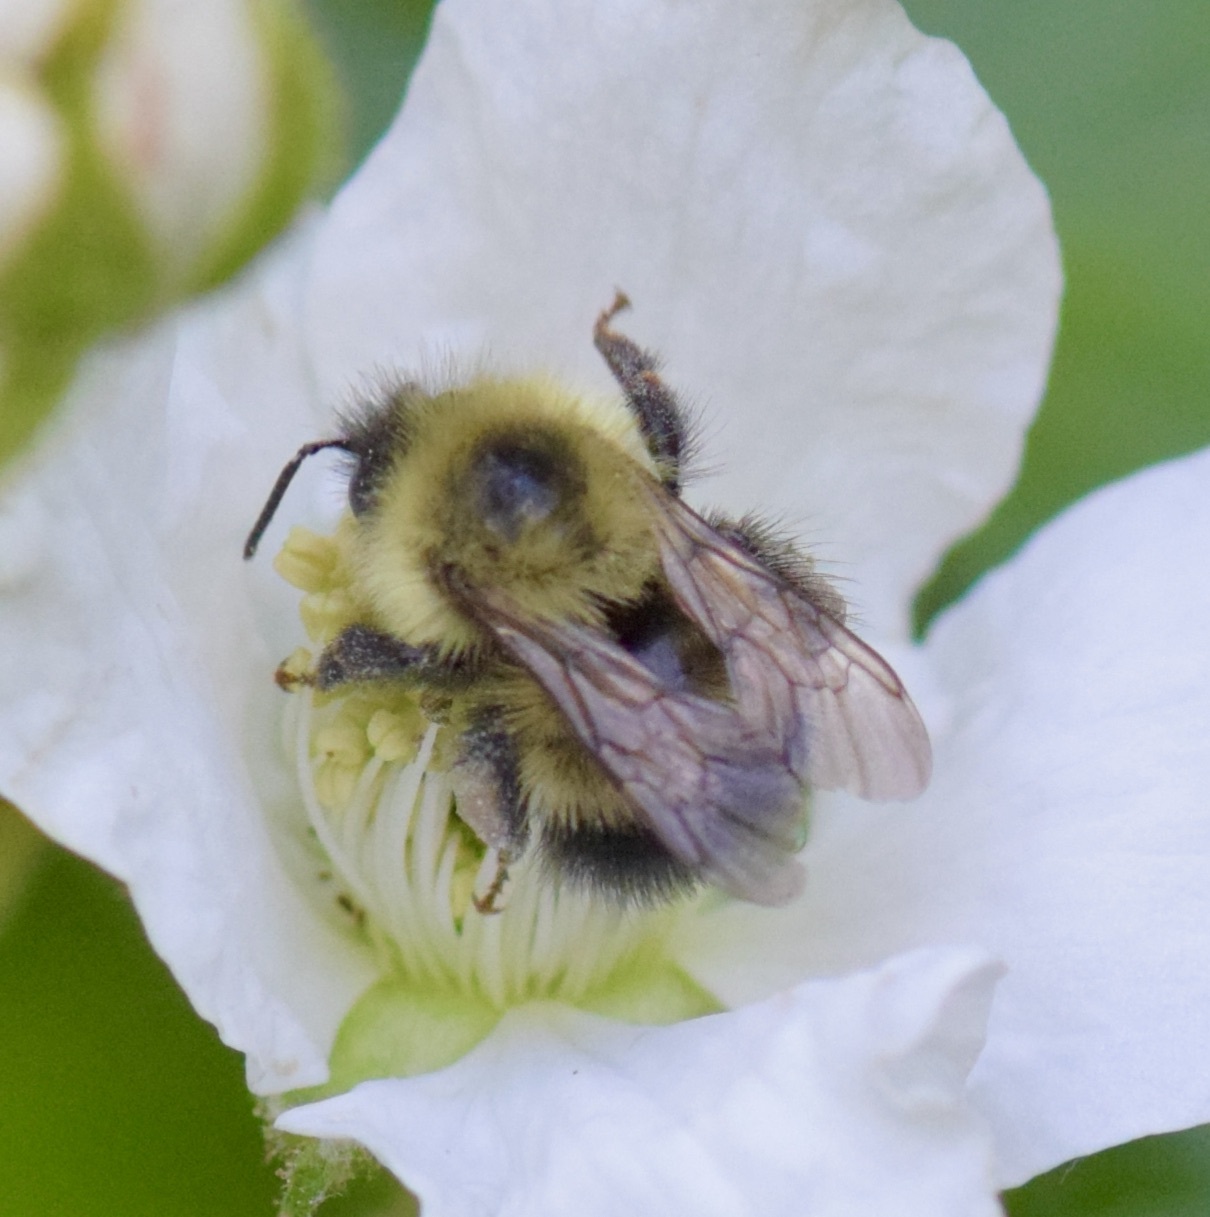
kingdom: Animalia
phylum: Arthropoda
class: Insecta
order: Hymenoptera
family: Apidae
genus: Pyrobombus
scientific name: Pyrobombus
